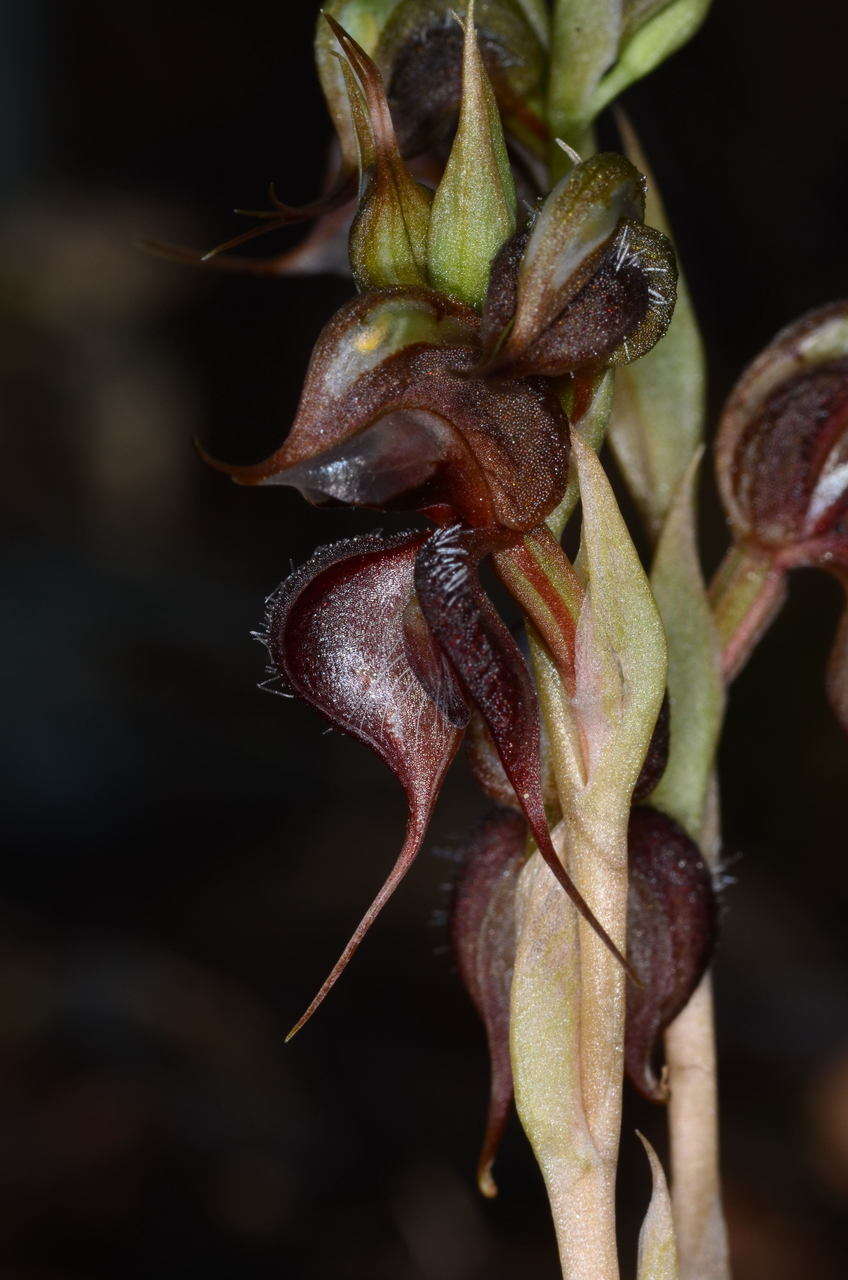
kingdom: Plantae
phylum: Tracheophyta
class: Liliopsida
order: Asparagales
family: Orchidaceae
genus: Pterostylis
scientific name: Pterostylis boormanii
